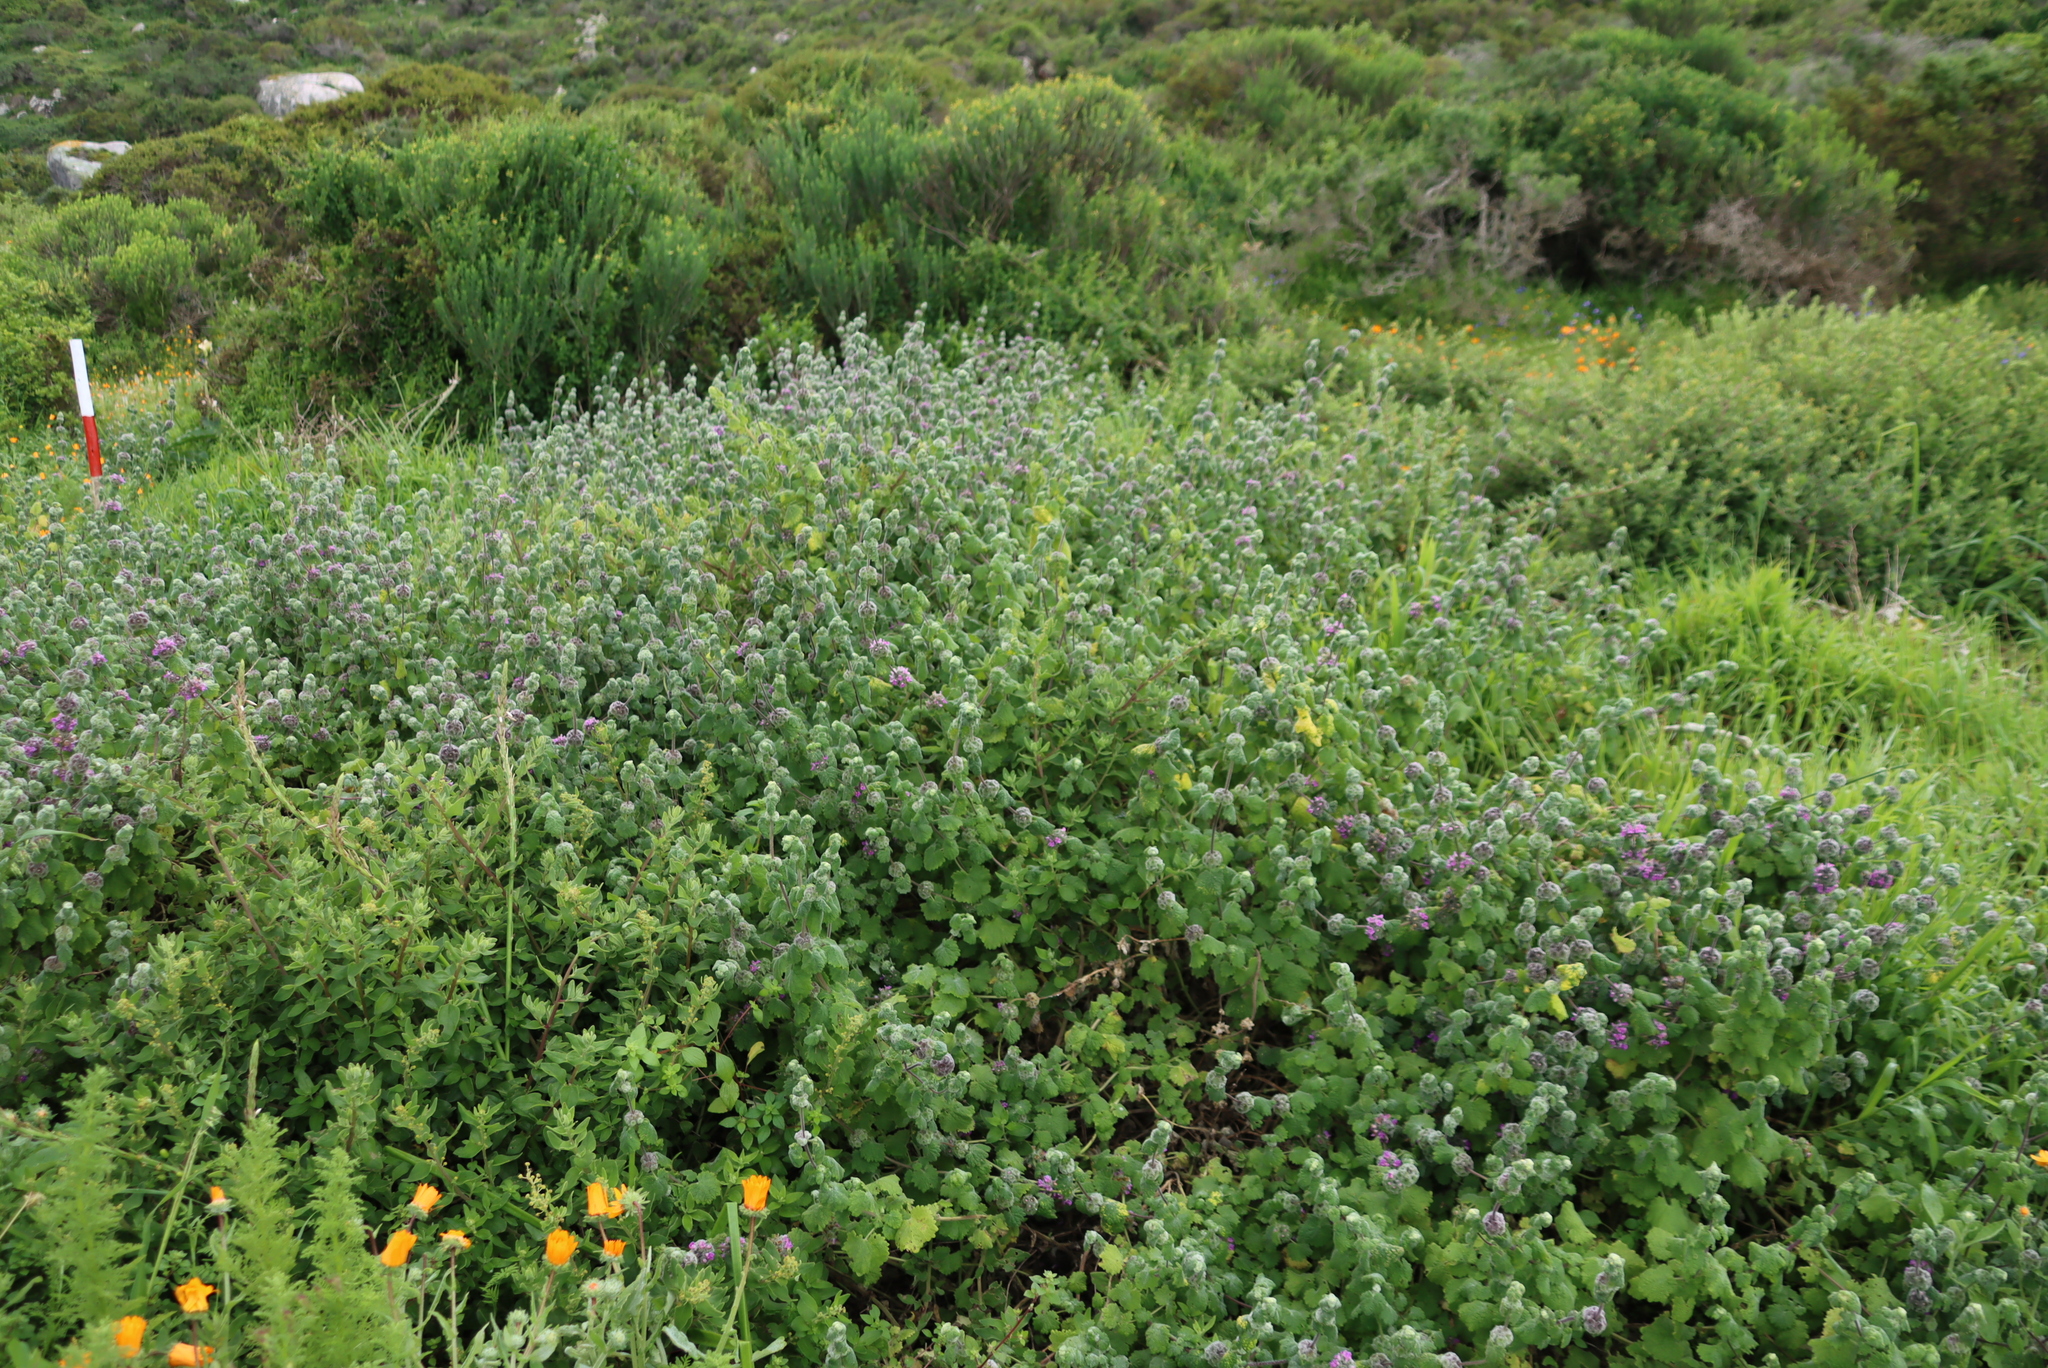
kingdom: Plantae
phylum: Tracheophyta
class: Magnoliopsida
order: Lamiales
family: Lamiaceae
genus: Pseudodictamnus
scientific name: Pseudodictamnus africanus
